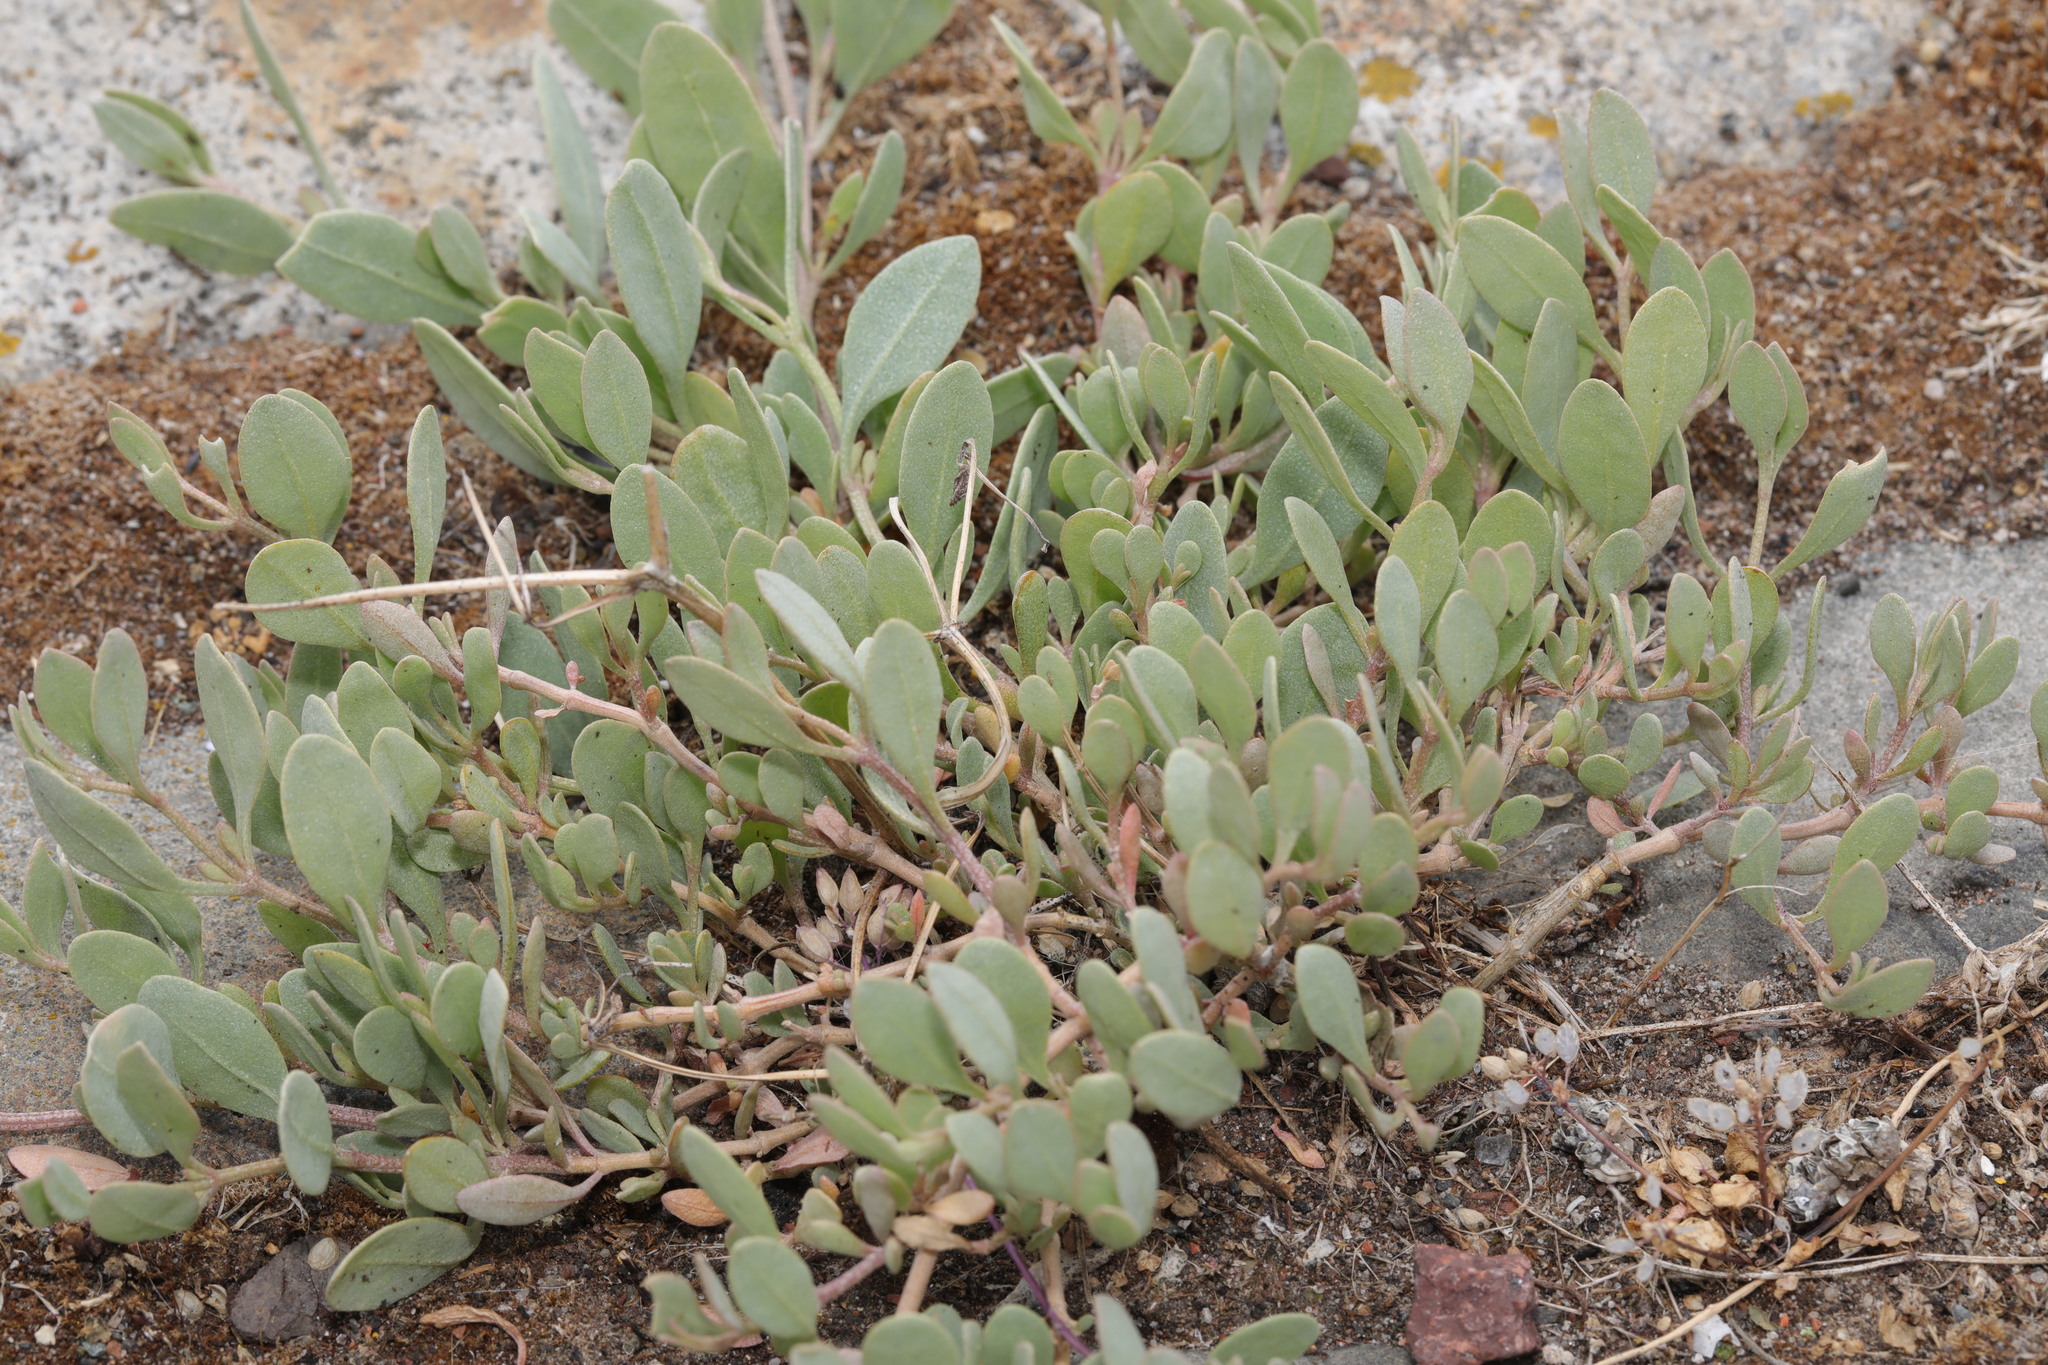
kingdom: Plantae
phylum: Tracheophyta
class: Magnoliopsida
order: Caryophyllales
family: Amaranthaceae
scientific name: Amaranthaceae
